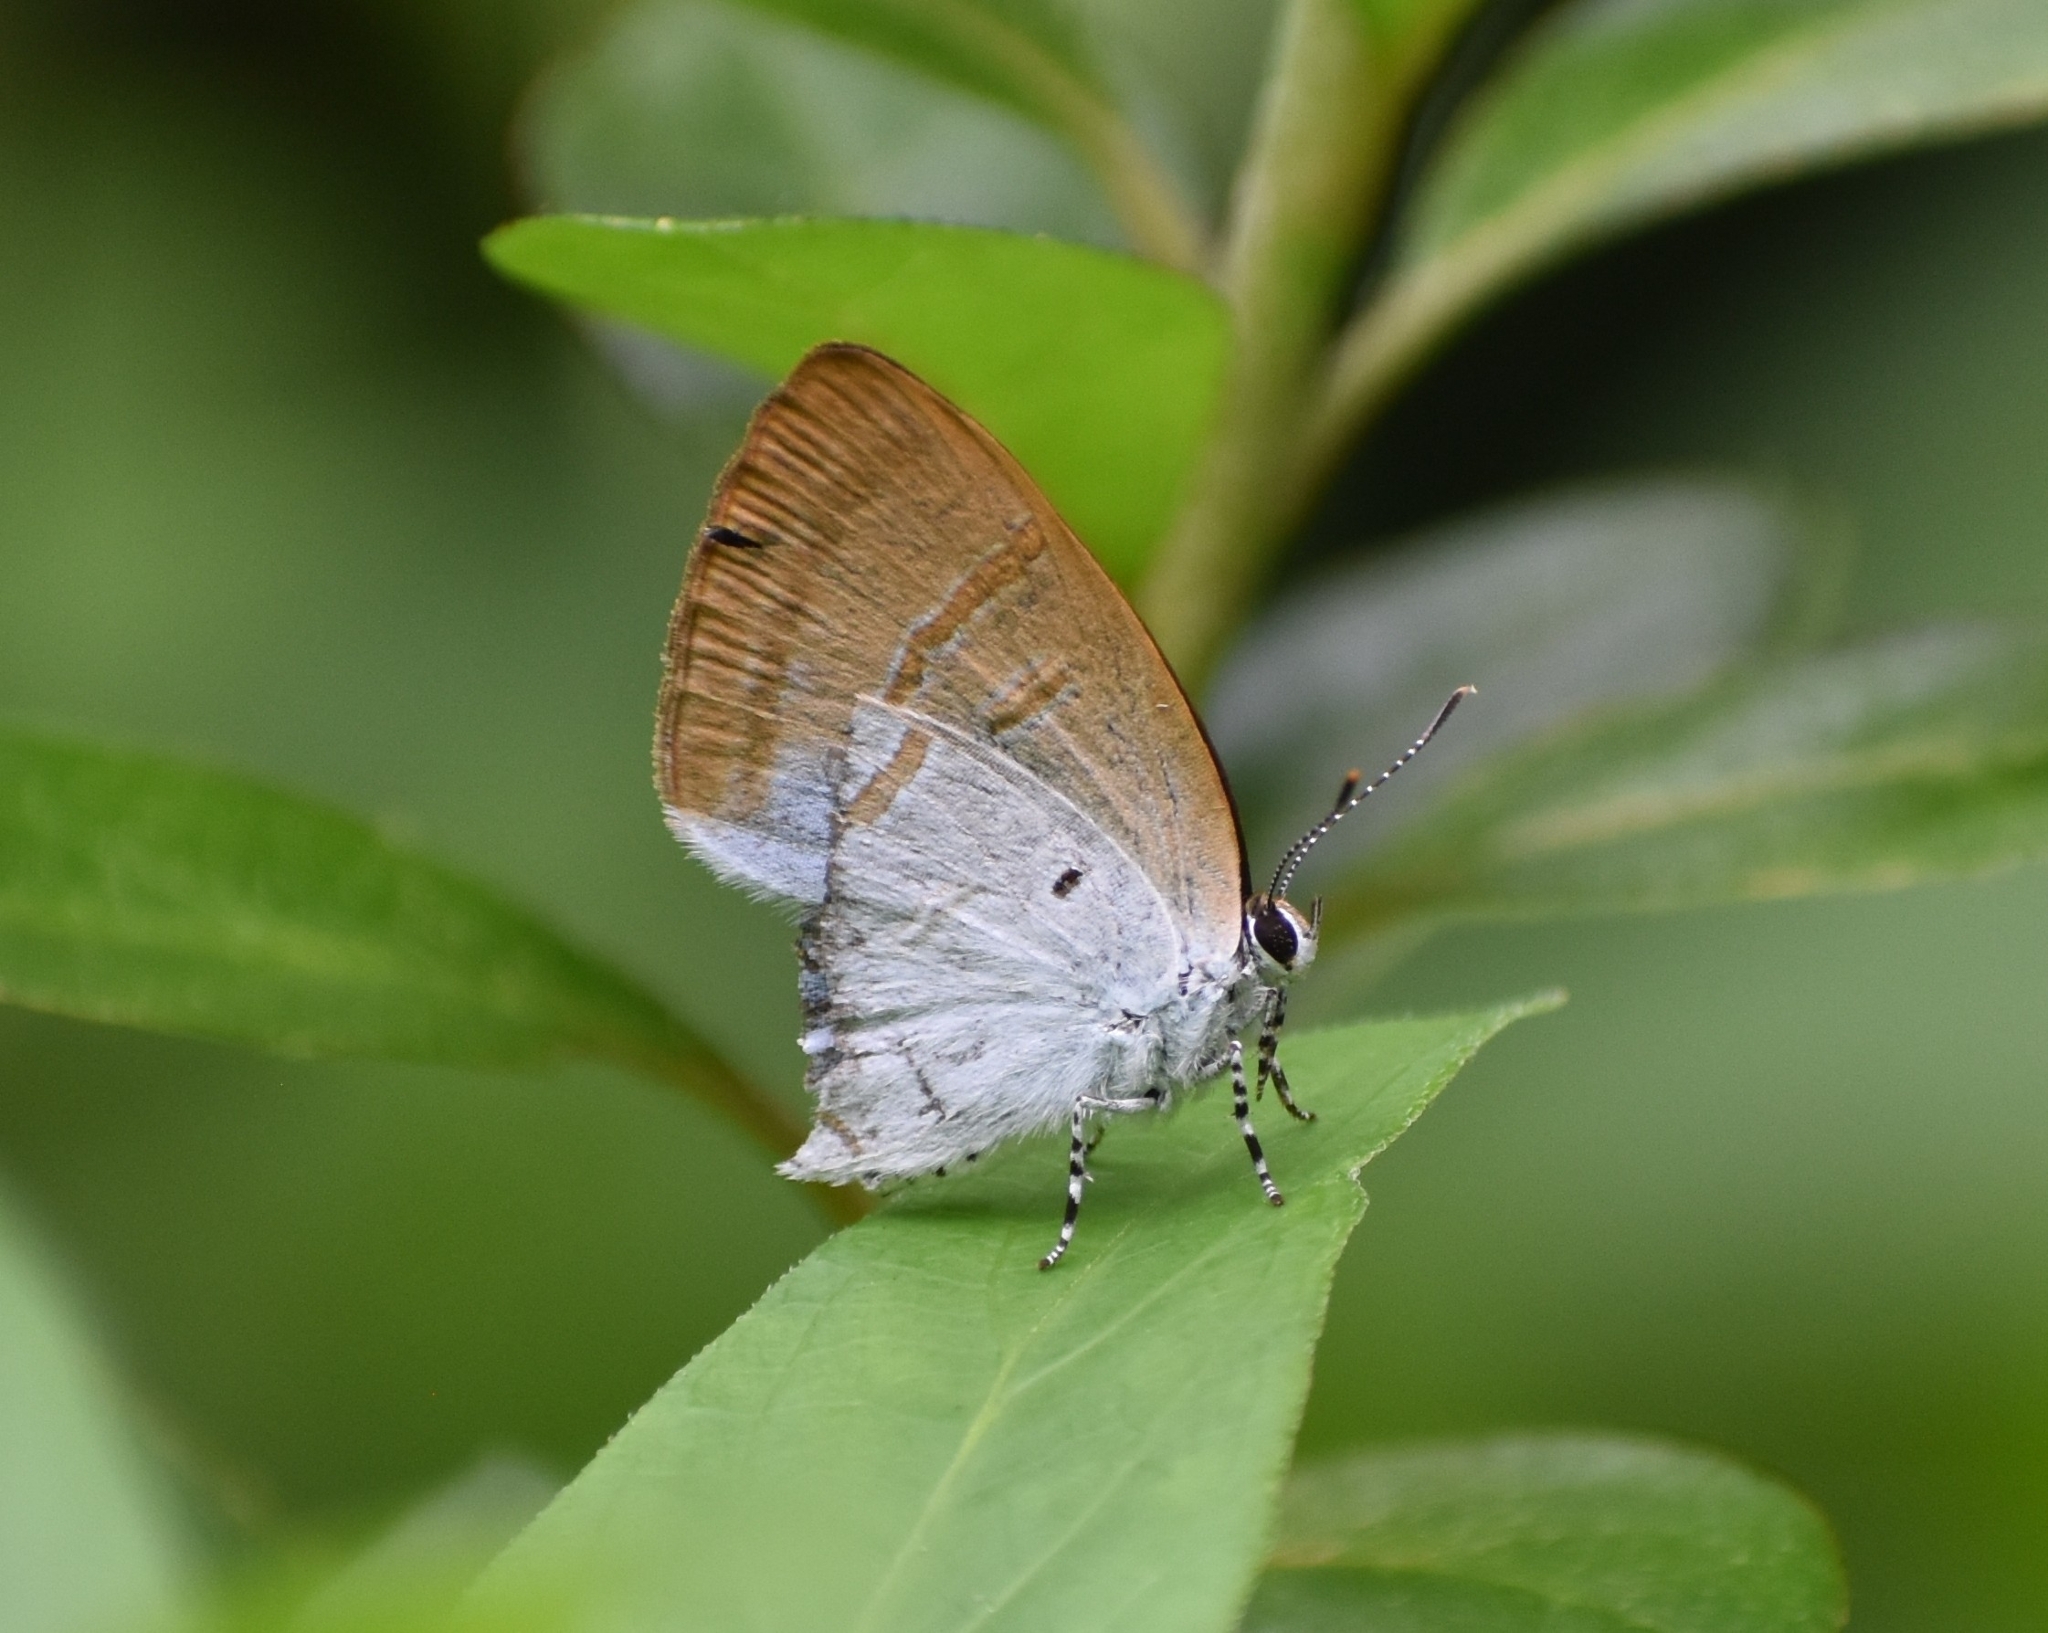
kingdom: Animalia
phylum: Arthropoda
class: Insecta
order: Lepidoptera
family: Lycaenidae
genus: Zeltus
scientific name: Zeltus amasa
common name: Fluffy tit
